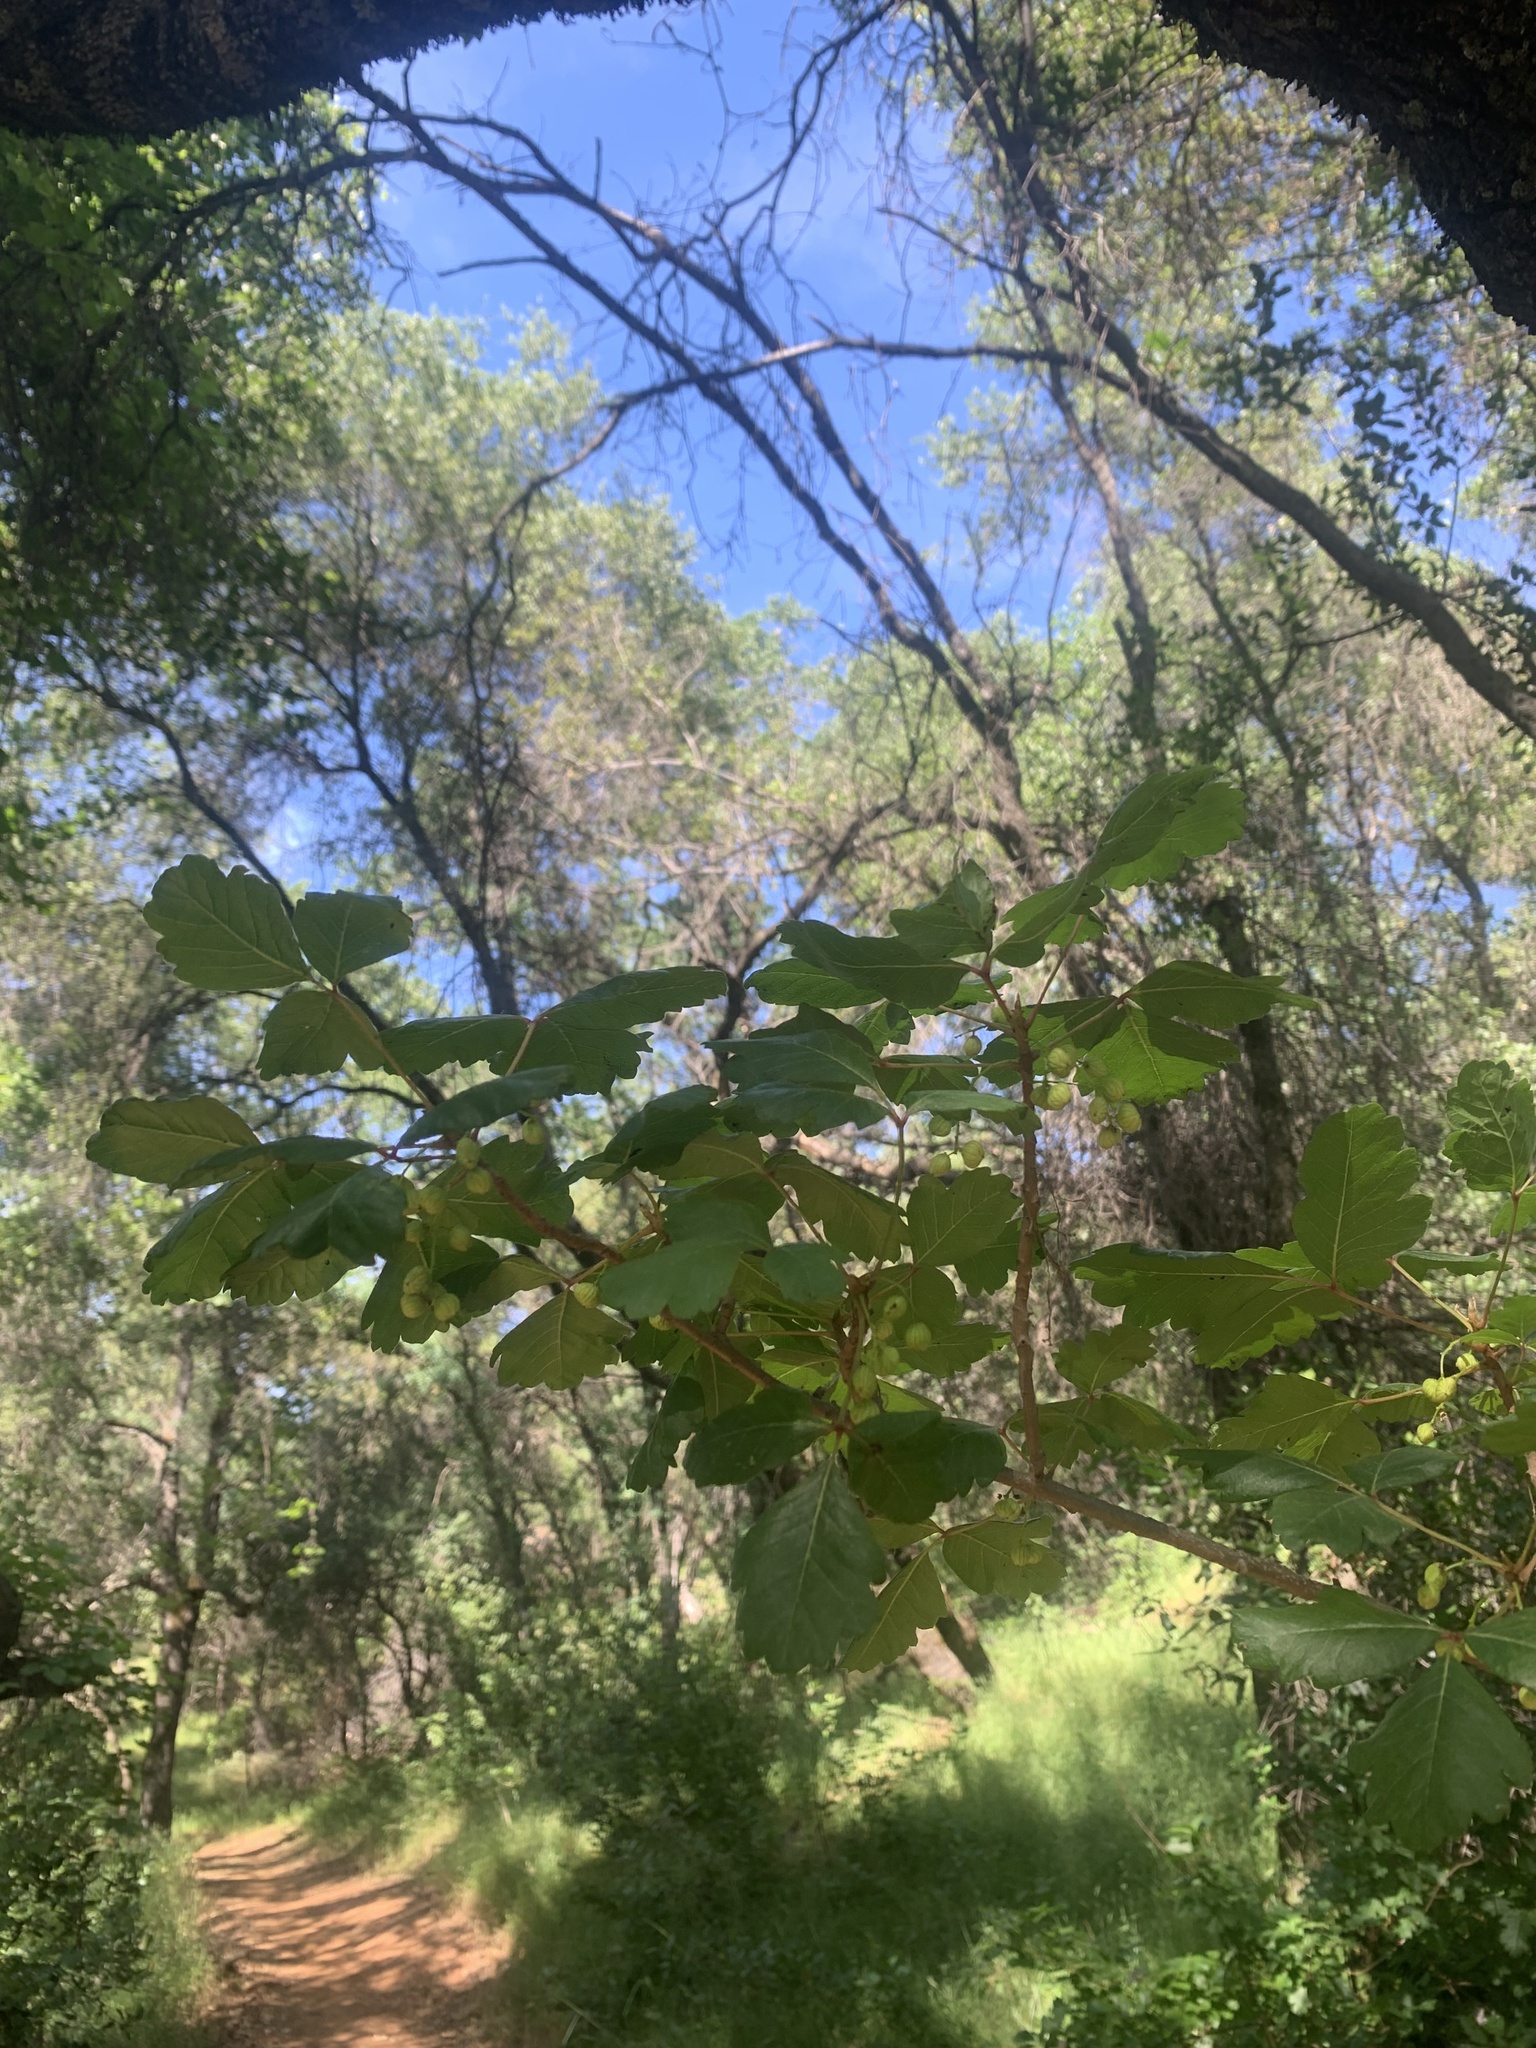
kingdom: Plantae
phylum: Tracheophyta
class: Magnoliopsida
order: Sapindales
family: Anacardiaceae
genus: Toxicodendron
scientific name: Toxicodendron diversilobum
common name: Pacific poison-oak
